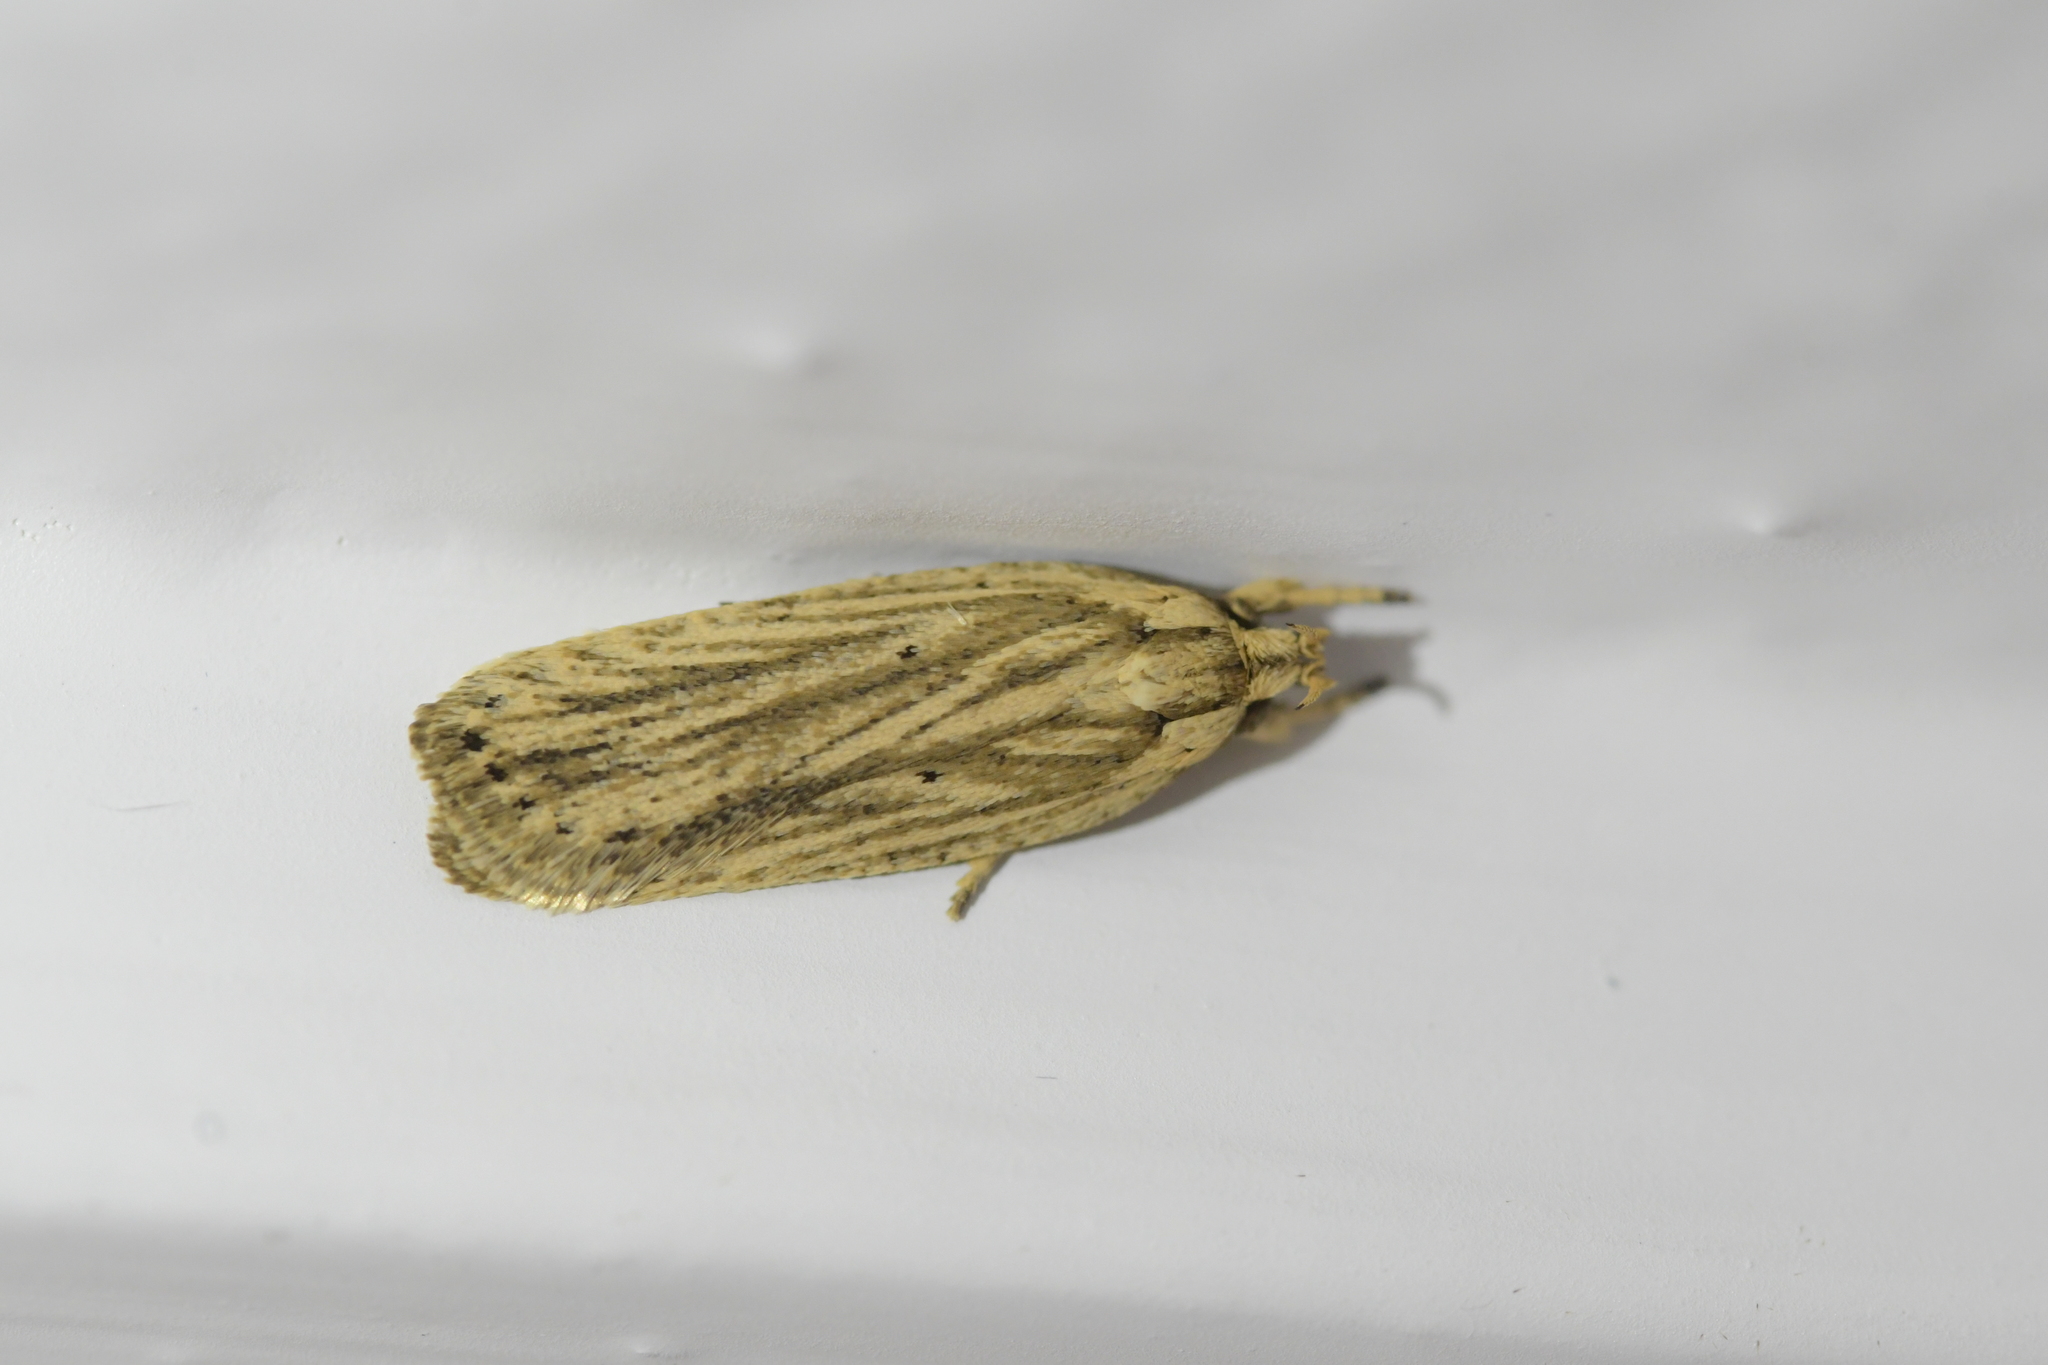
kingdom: Animalia
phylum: Arthropoda
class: Insecta
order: Lepidoptera
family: Depressariidae
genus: Agonopterix
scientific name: Agonopterix
